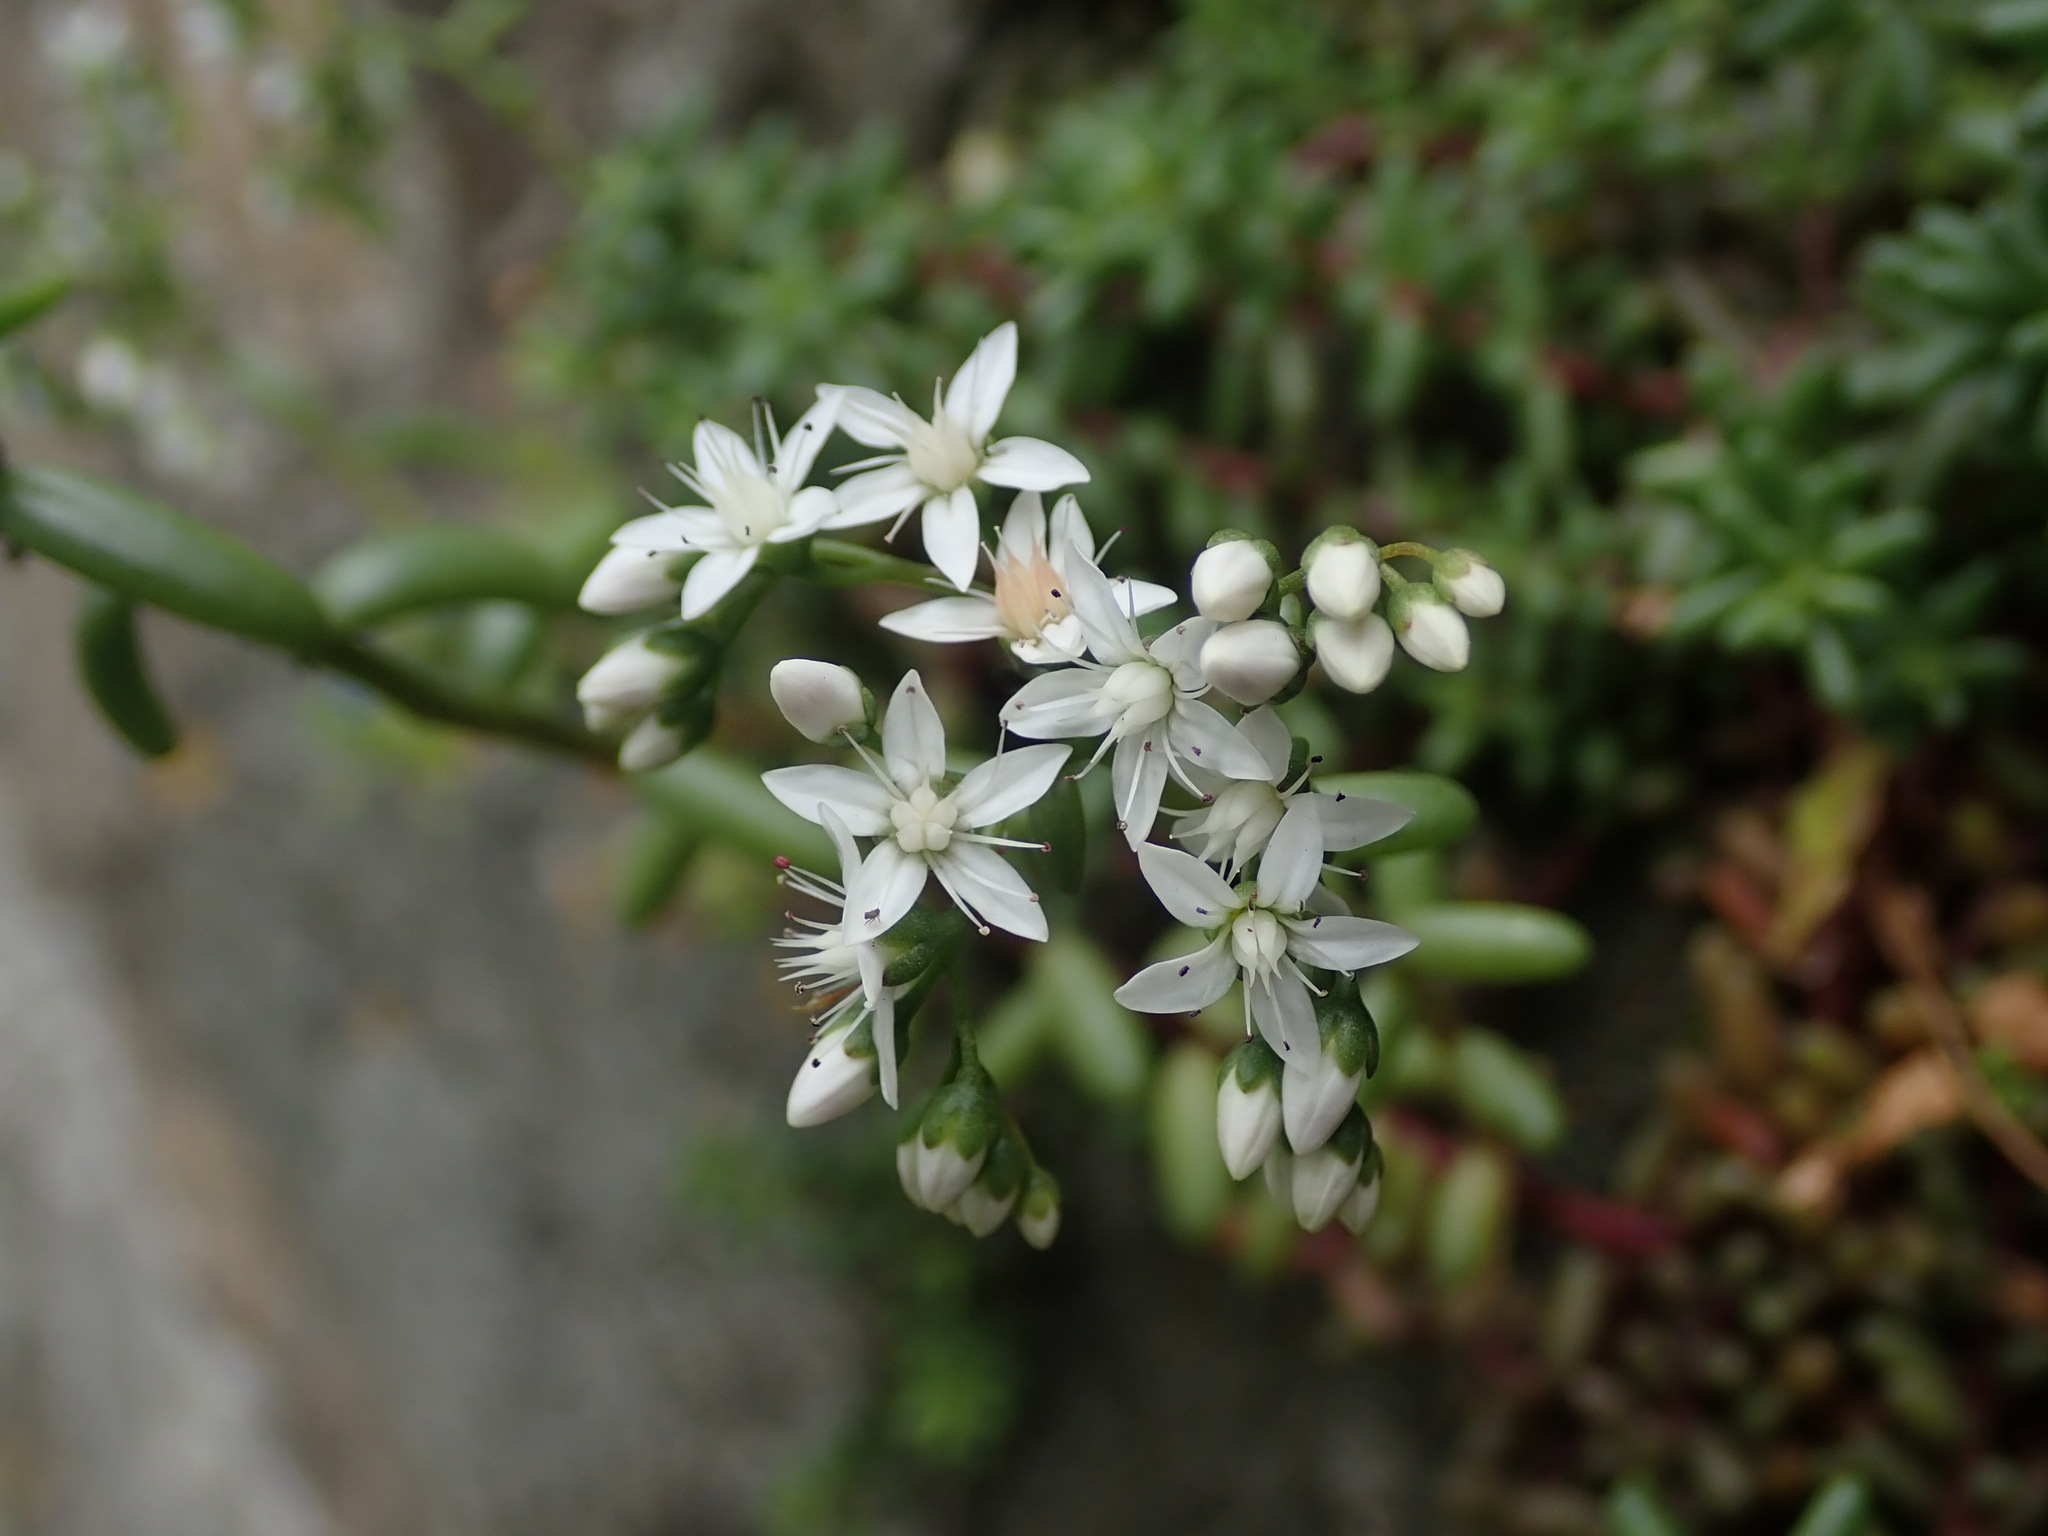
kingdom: Plantae
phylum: Tracheophyta
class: Magnoliopsida
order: Saxifragales
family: Crassulaceae
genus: Sedum
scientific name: Sedum album
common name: White stonecrop
